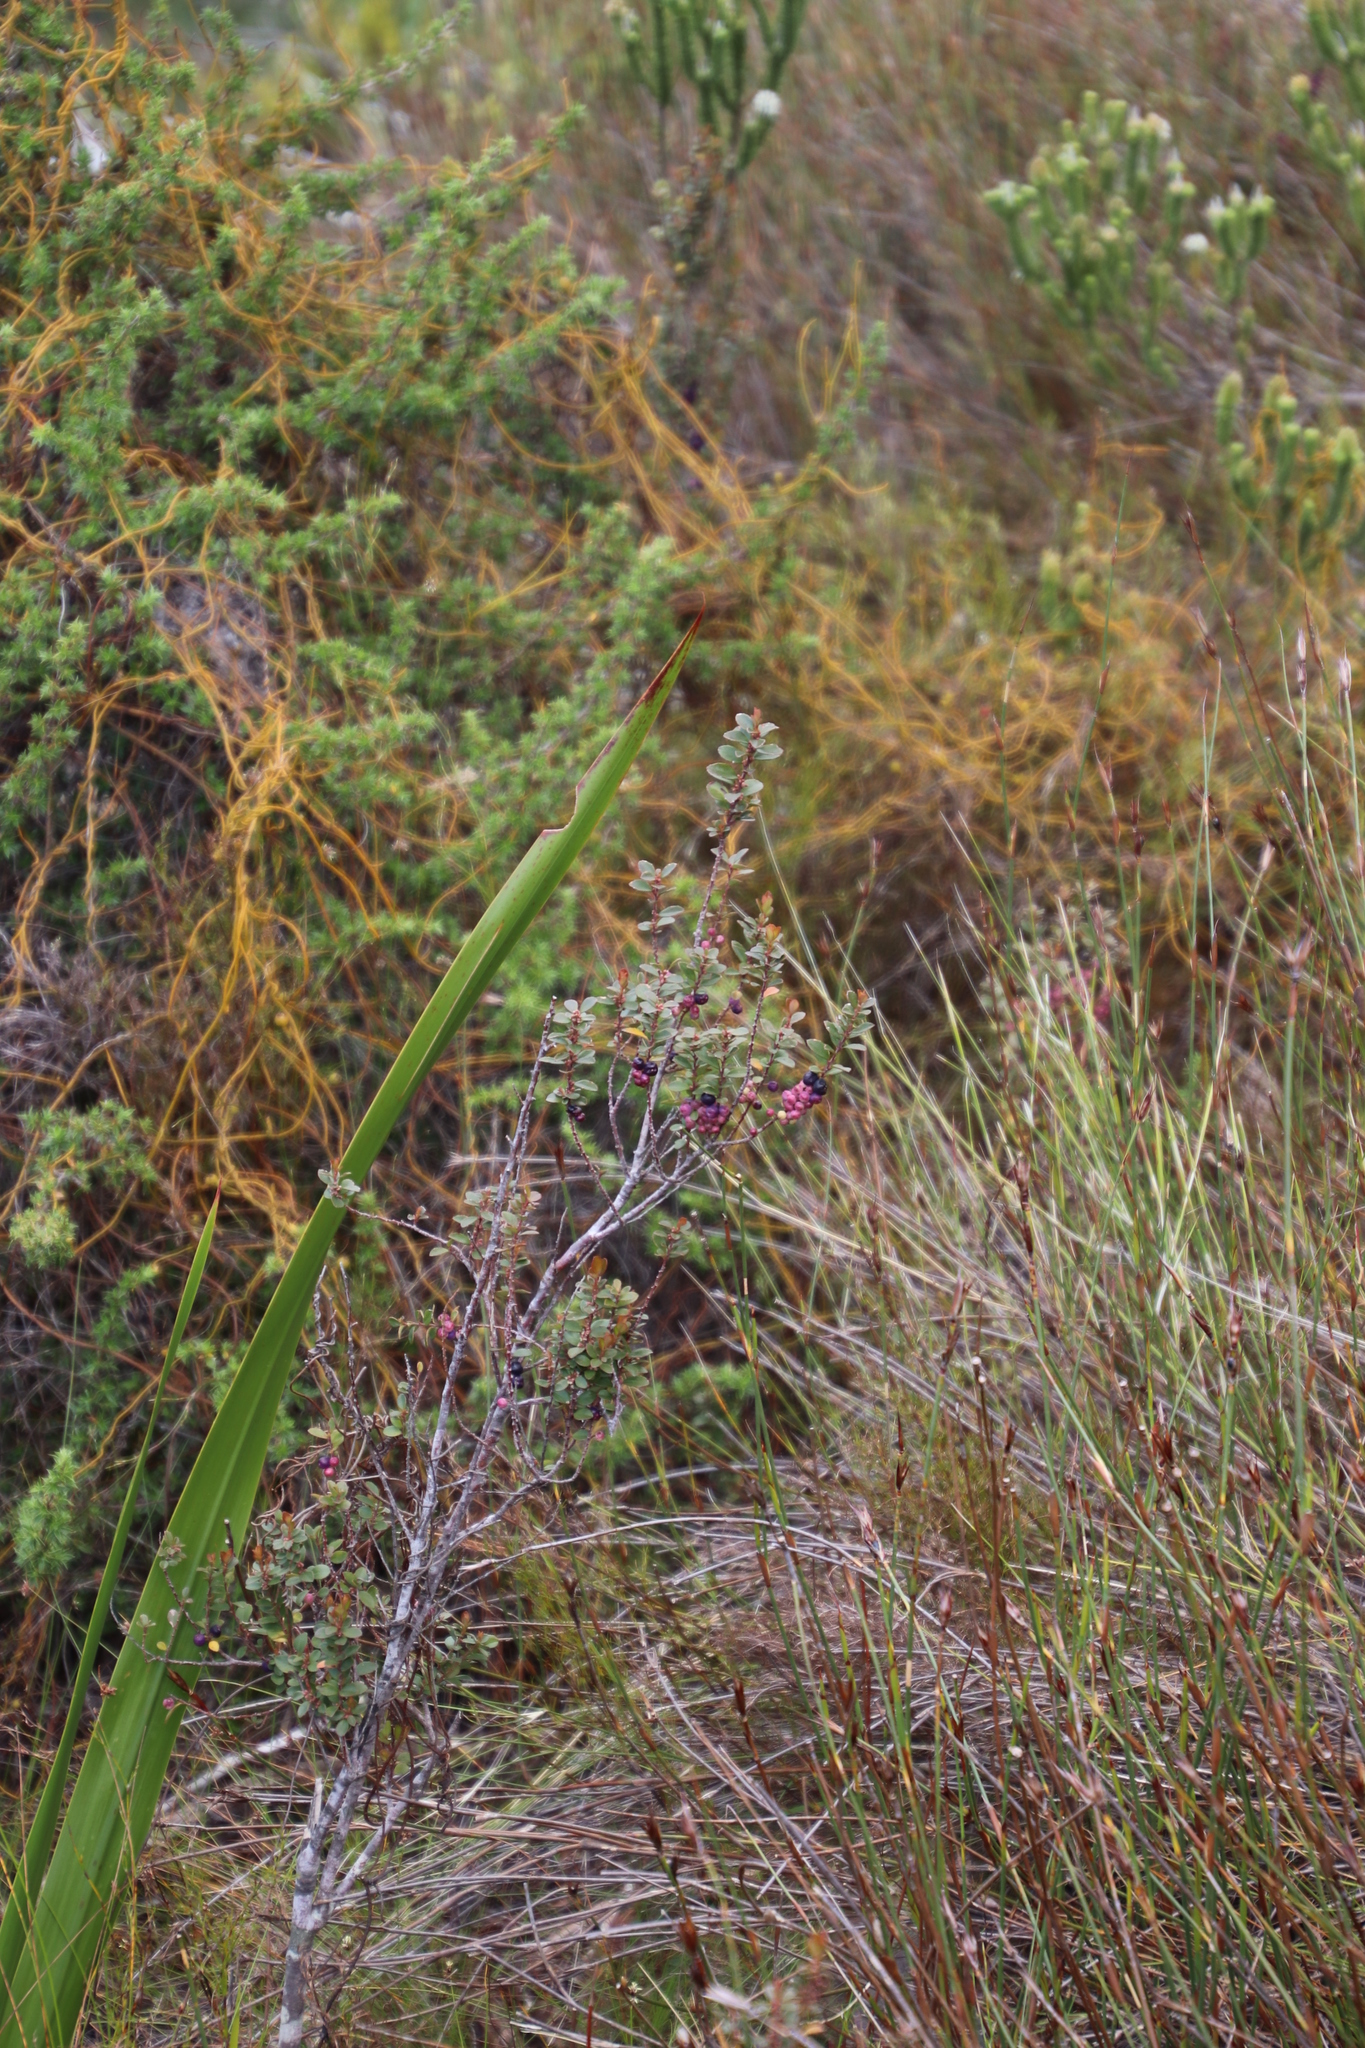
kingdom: Plantae
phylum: Tracheophyta
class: Magnoliopsida
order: Ericales
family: Primulaceae
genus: Myrsine
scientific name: Myrsine africana
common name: African-boxwood
